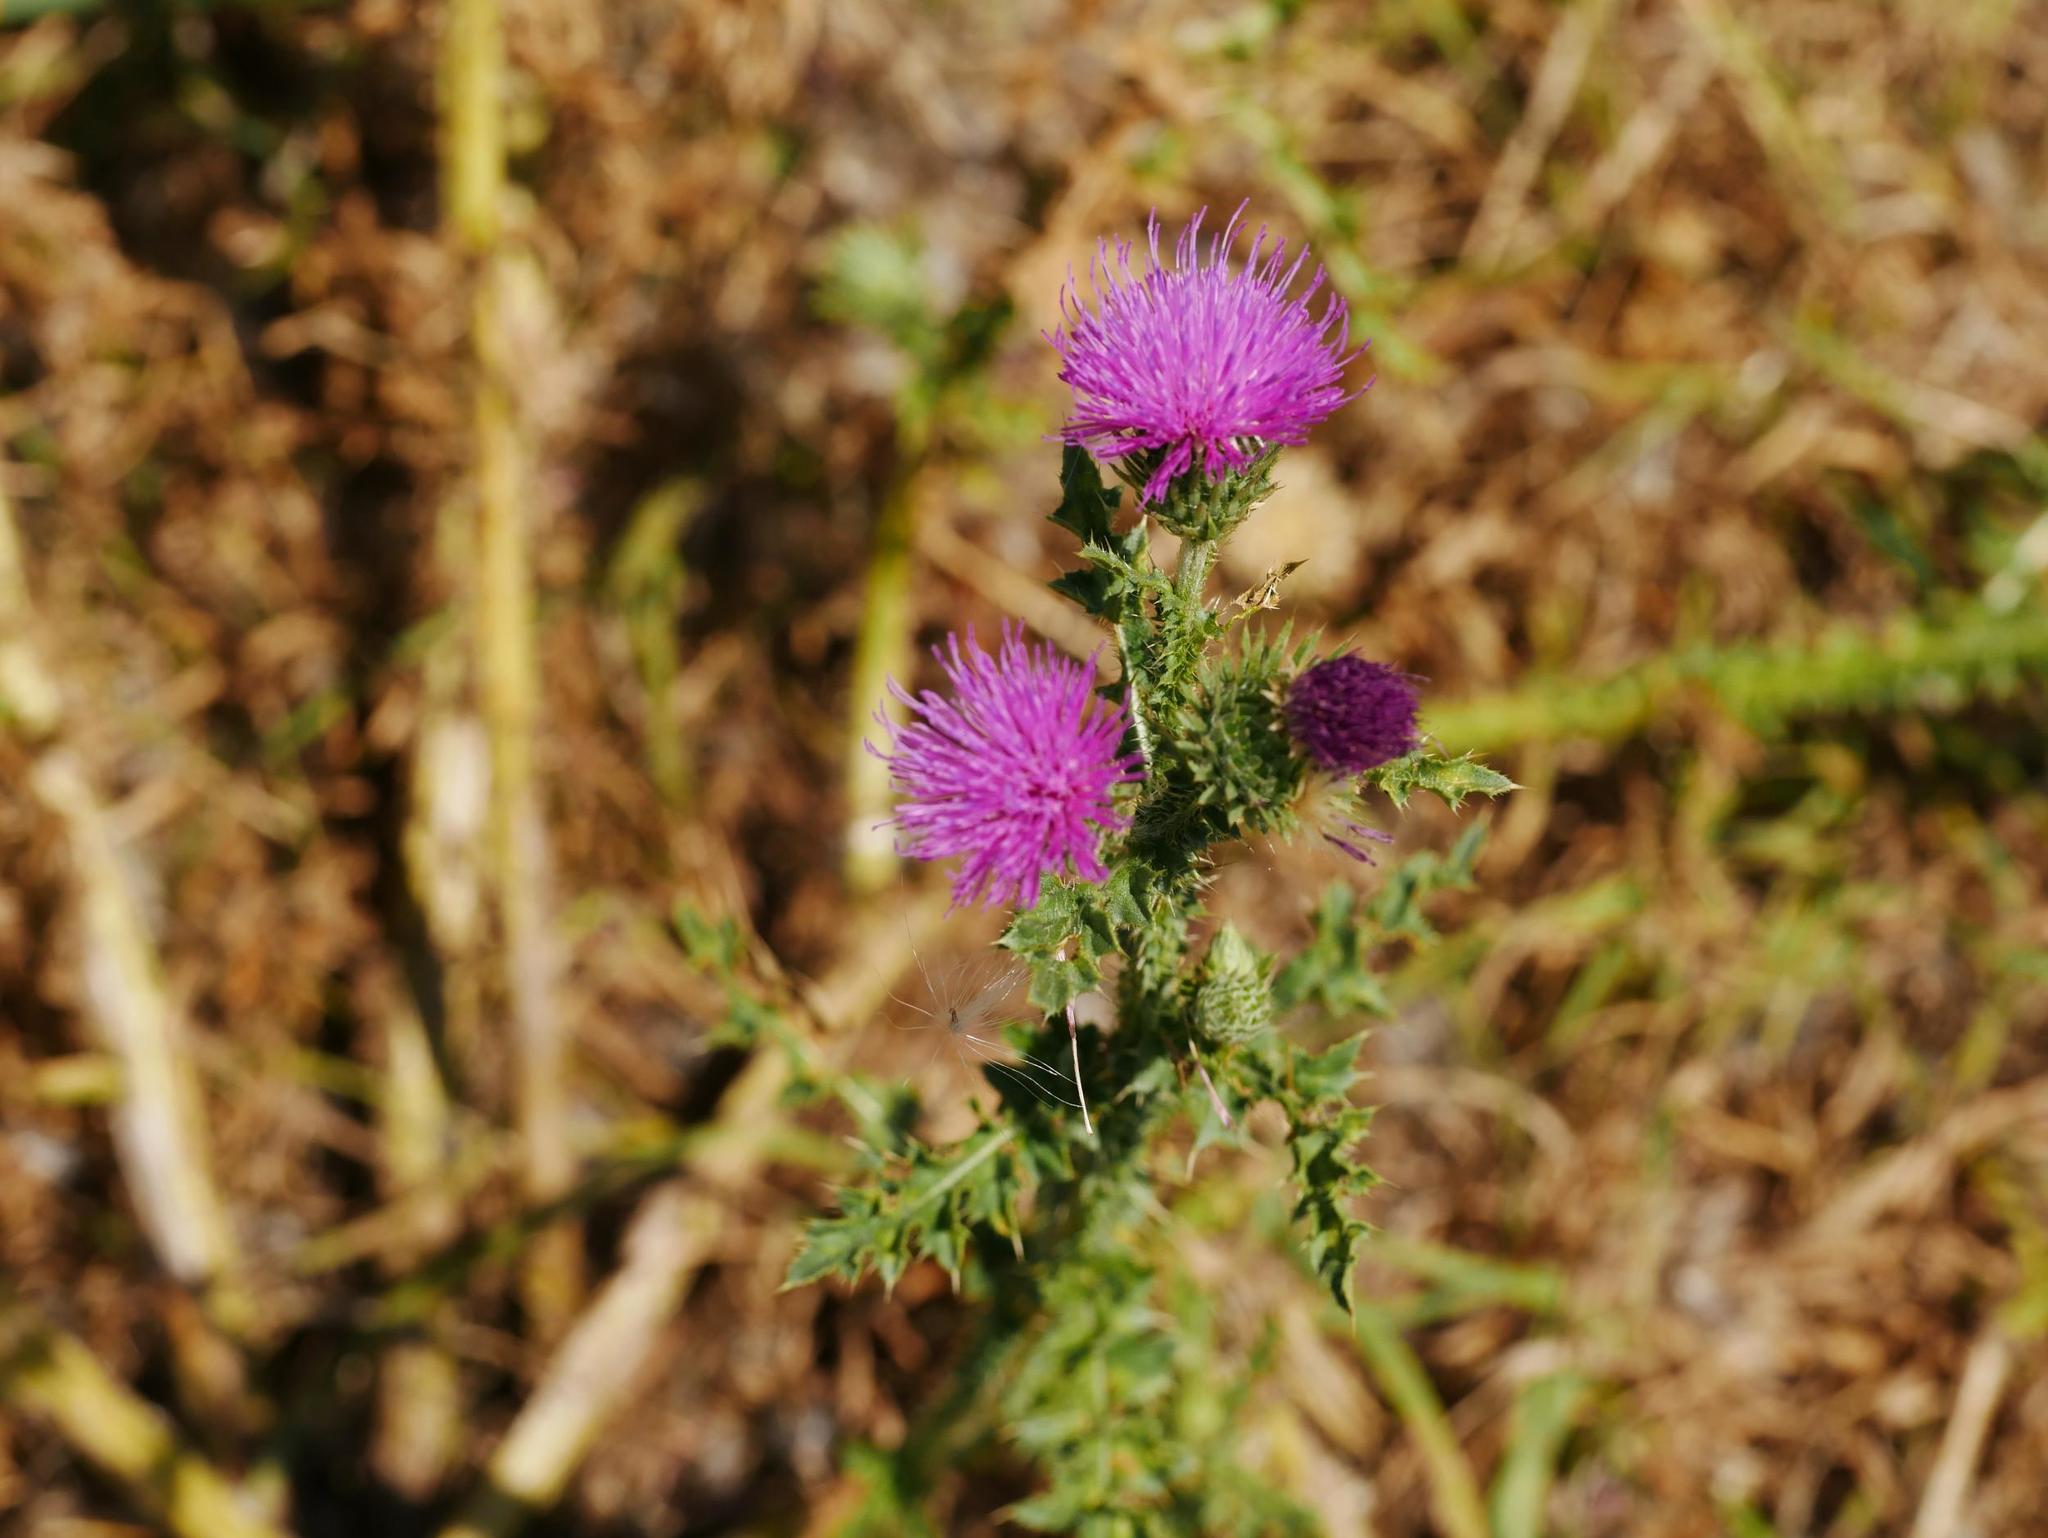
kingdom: Plantae
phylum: Tracheophyta
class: Magnoliopsida
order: Asterales
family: Asteraceae
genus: Carduus
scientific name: Carduus acanthoides
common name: Plumeless thistle
